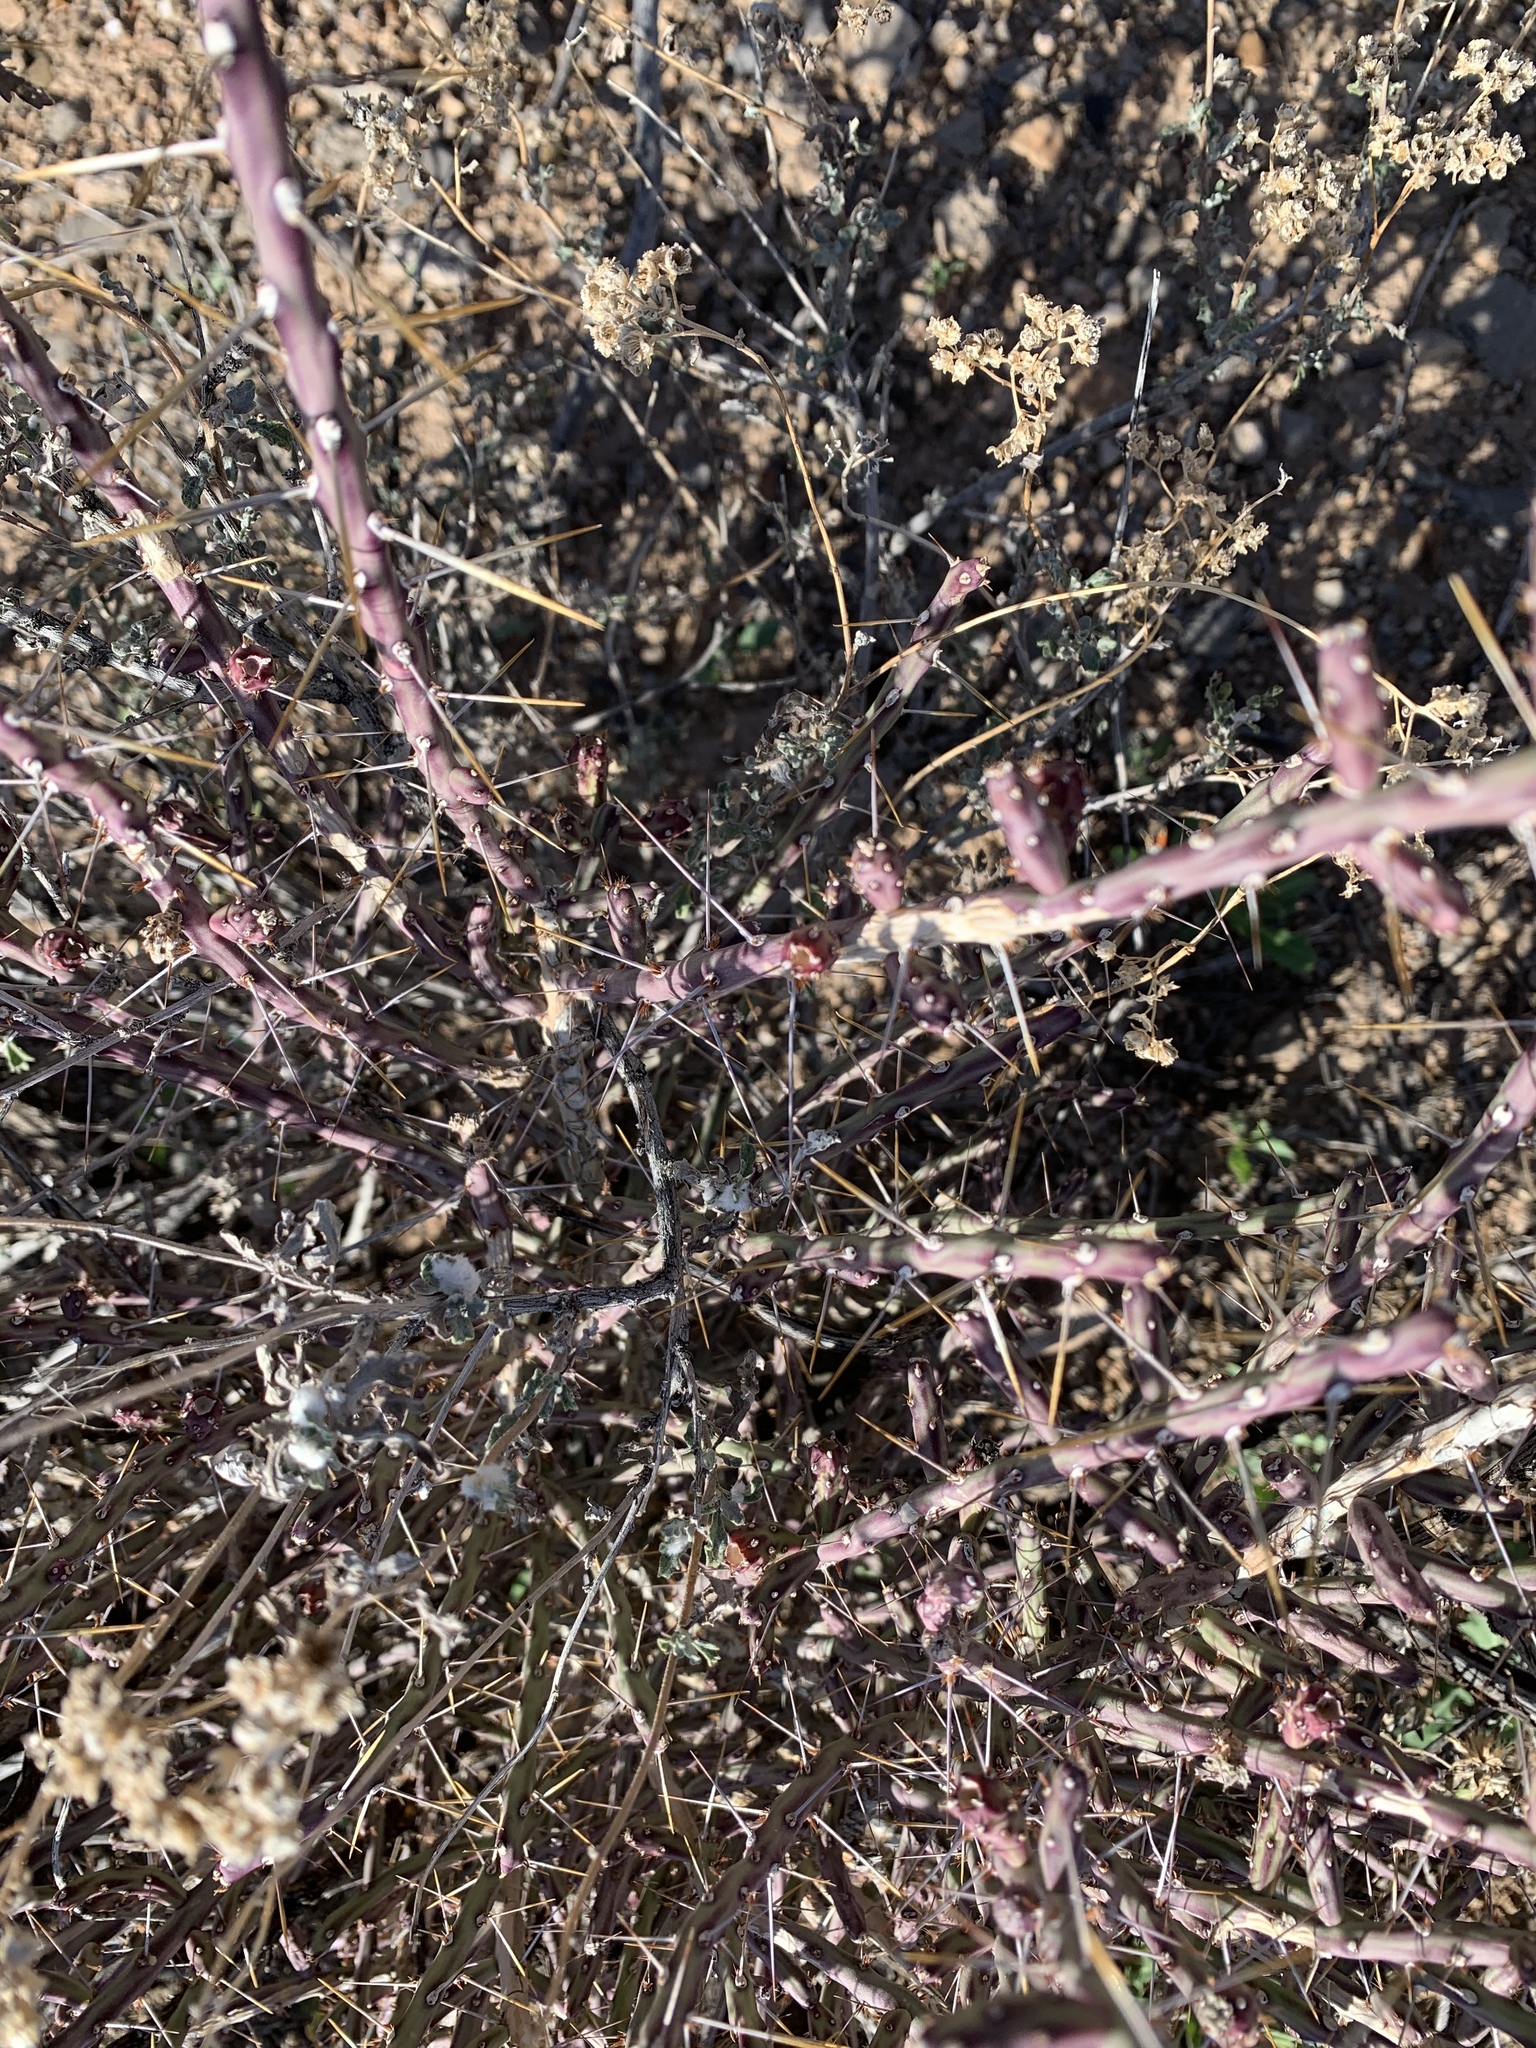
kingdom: Plantae
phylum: Tracheophyta
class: Magnoliopsida
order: Caryophyllales
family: Cactaceae
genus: Cylindropuntia
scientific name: Cylindropuntia leptocaulis
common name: Christmas cactus
